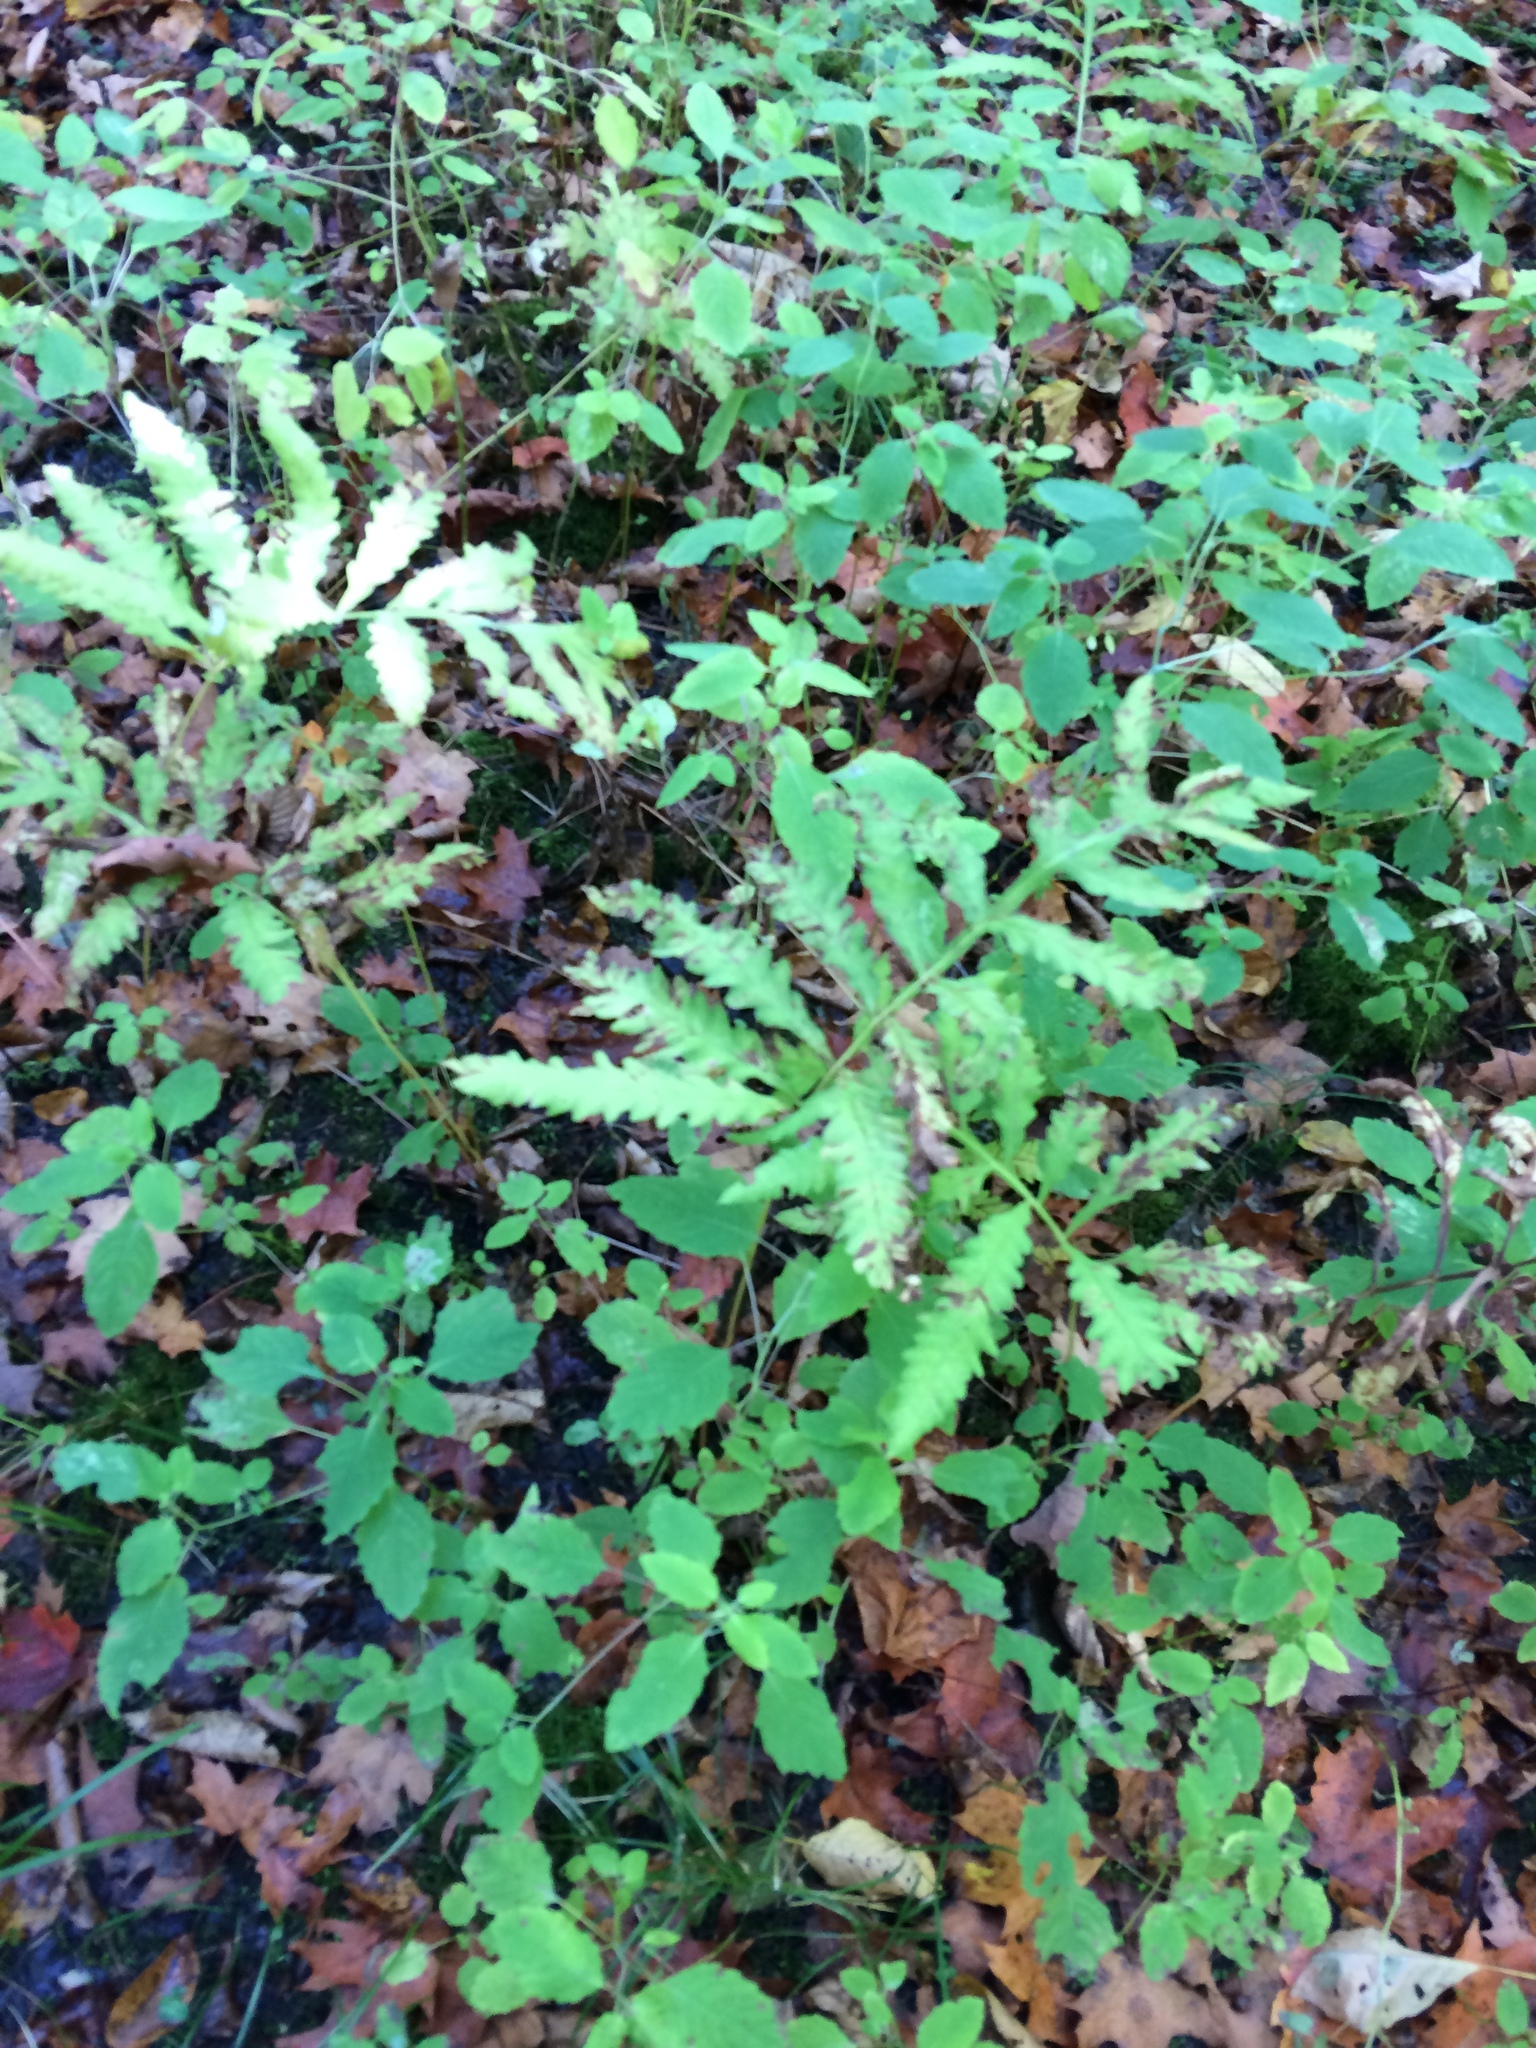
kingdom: Plantae
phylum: Tracheophyta
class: Polypodiopsida
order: Polypodiales
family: Onocleaceae
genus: Onoclea
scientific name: Onoclea sensibilis
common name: Sensitive fern
